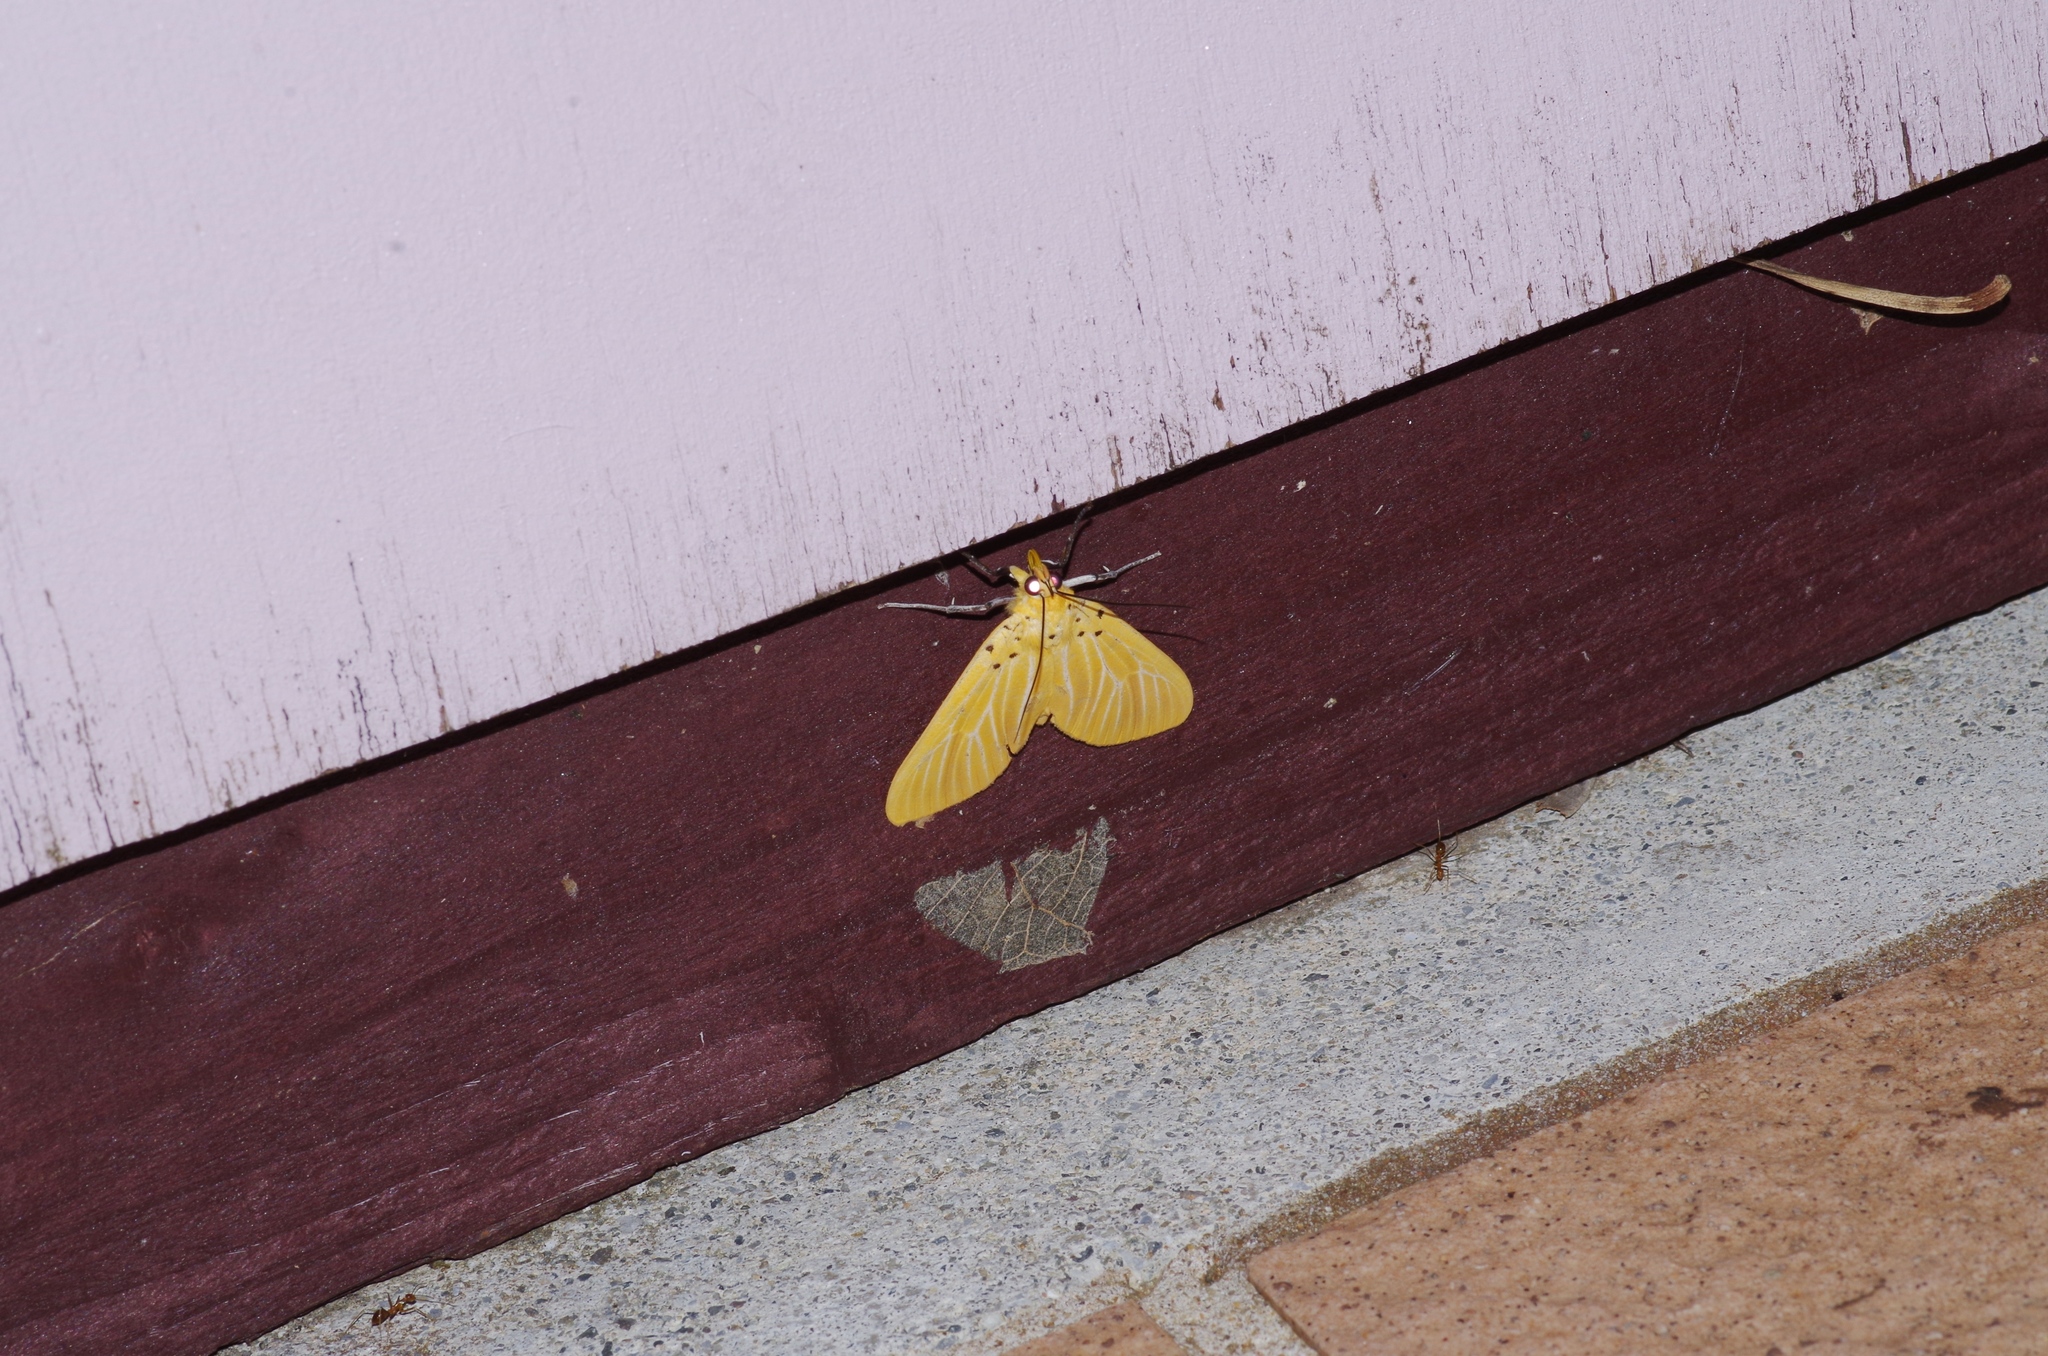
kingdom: Animalia
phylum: Arthropoda
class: Insecta
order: Lepidoptera
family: Erebidae
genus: Asota
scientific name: Asota egens
